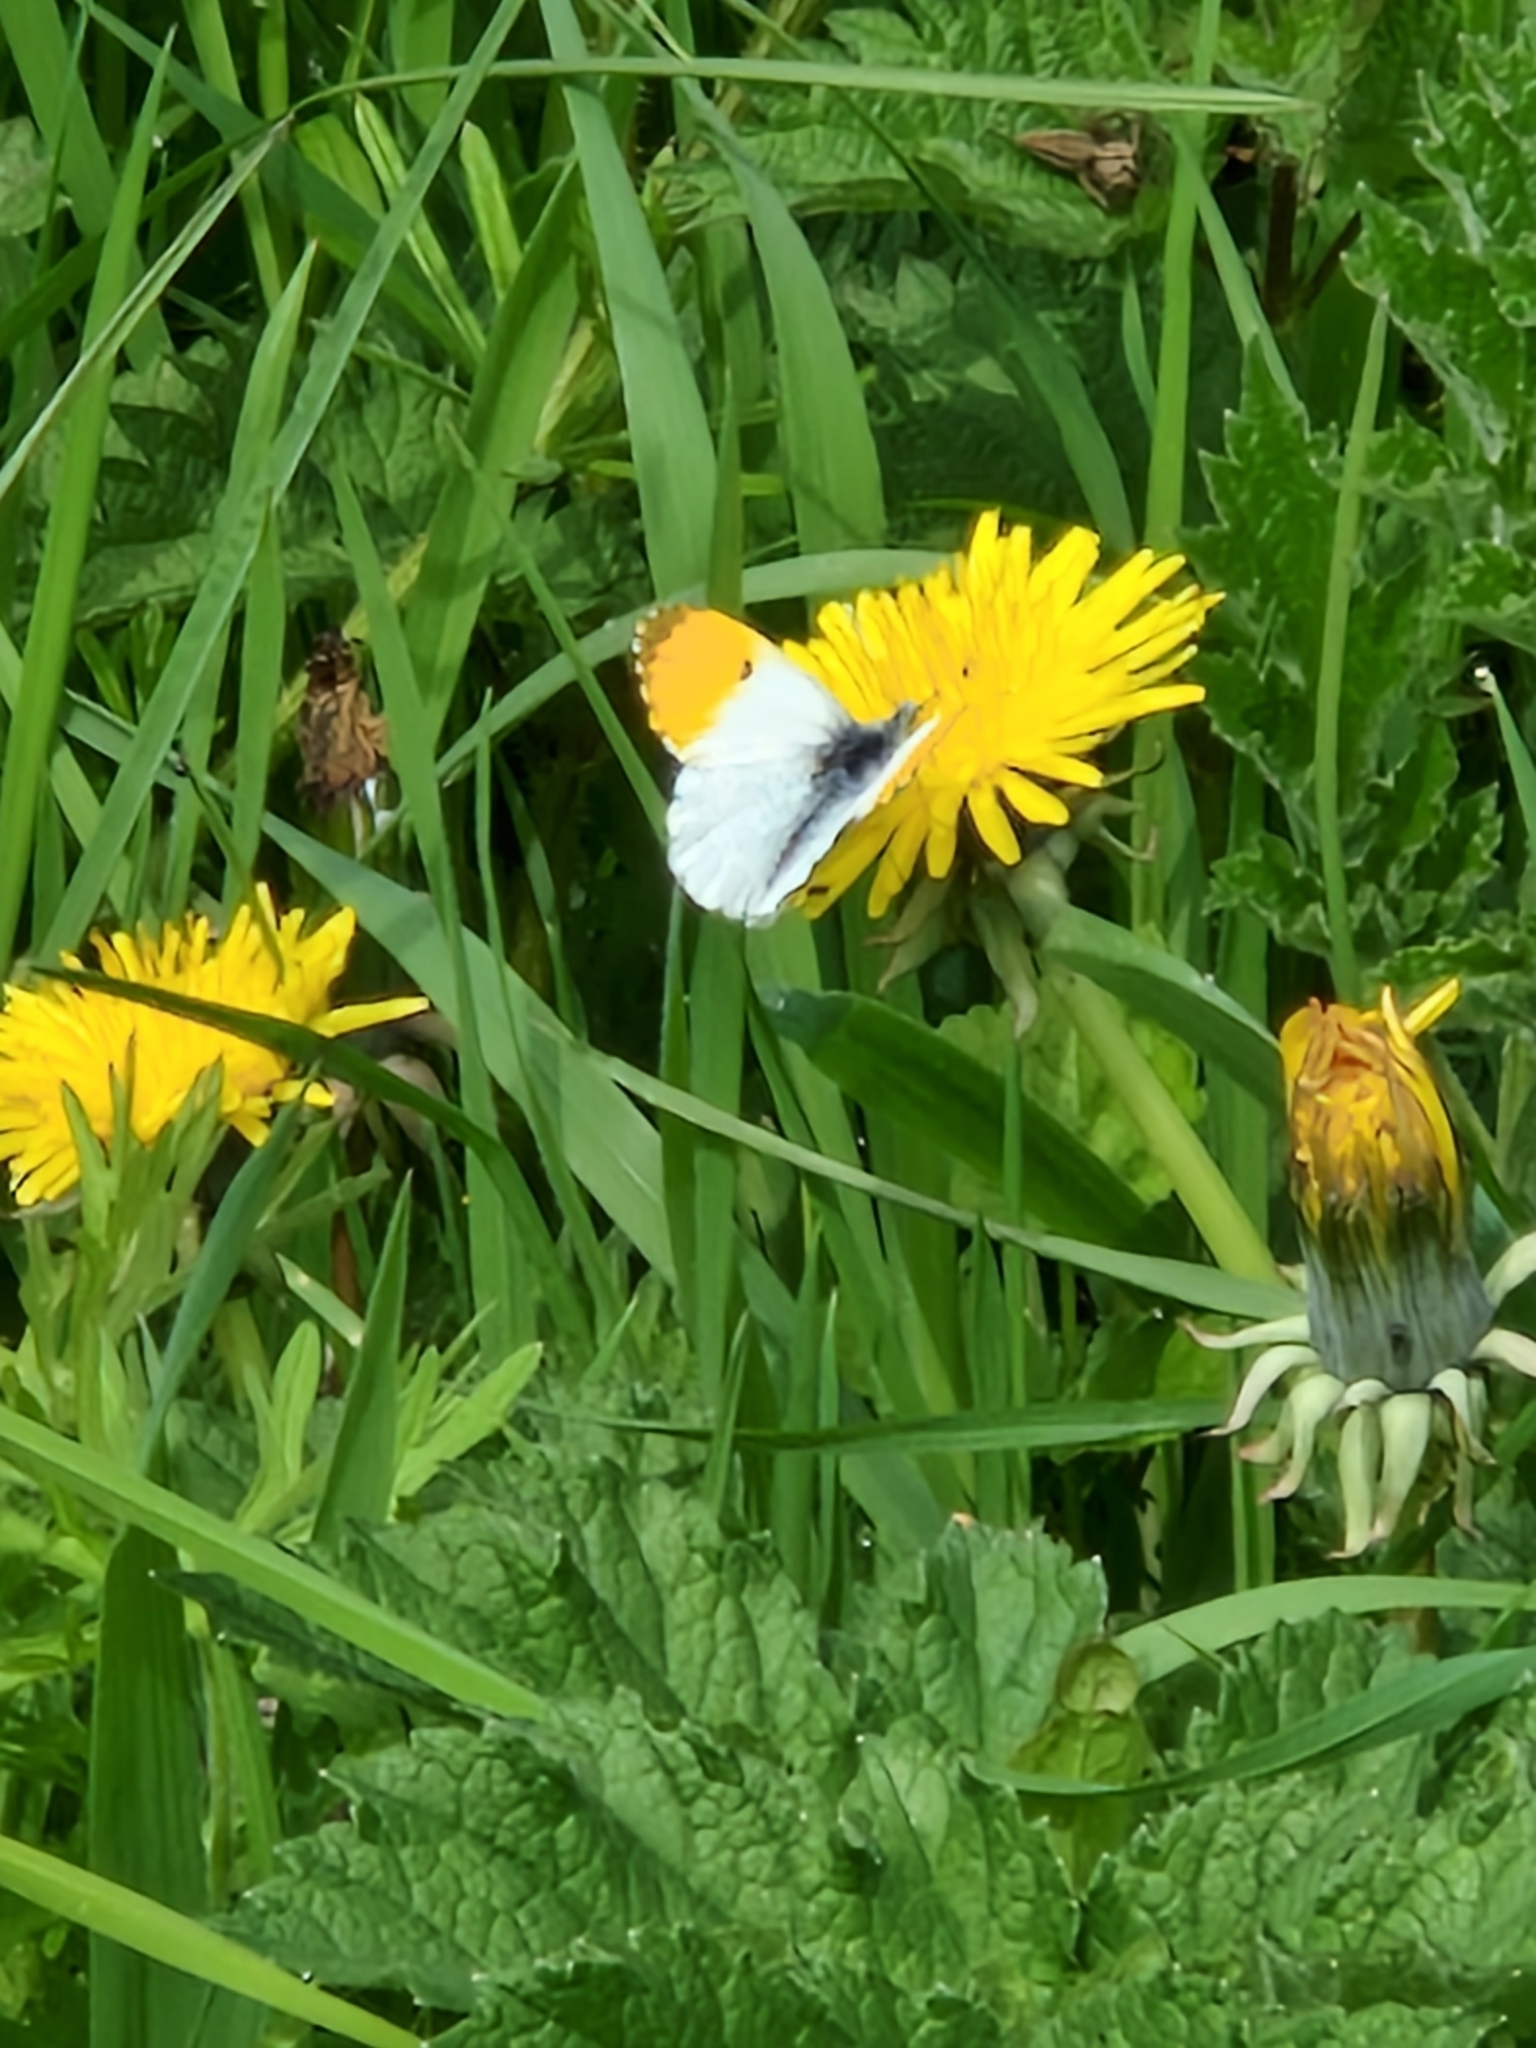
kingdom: Animalia
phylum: Arthropoda
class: Insecta
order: Lepidoptera
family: Pieridae
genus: Anthocharis
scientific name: Anthocharis cardamines
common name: Orange-tip
